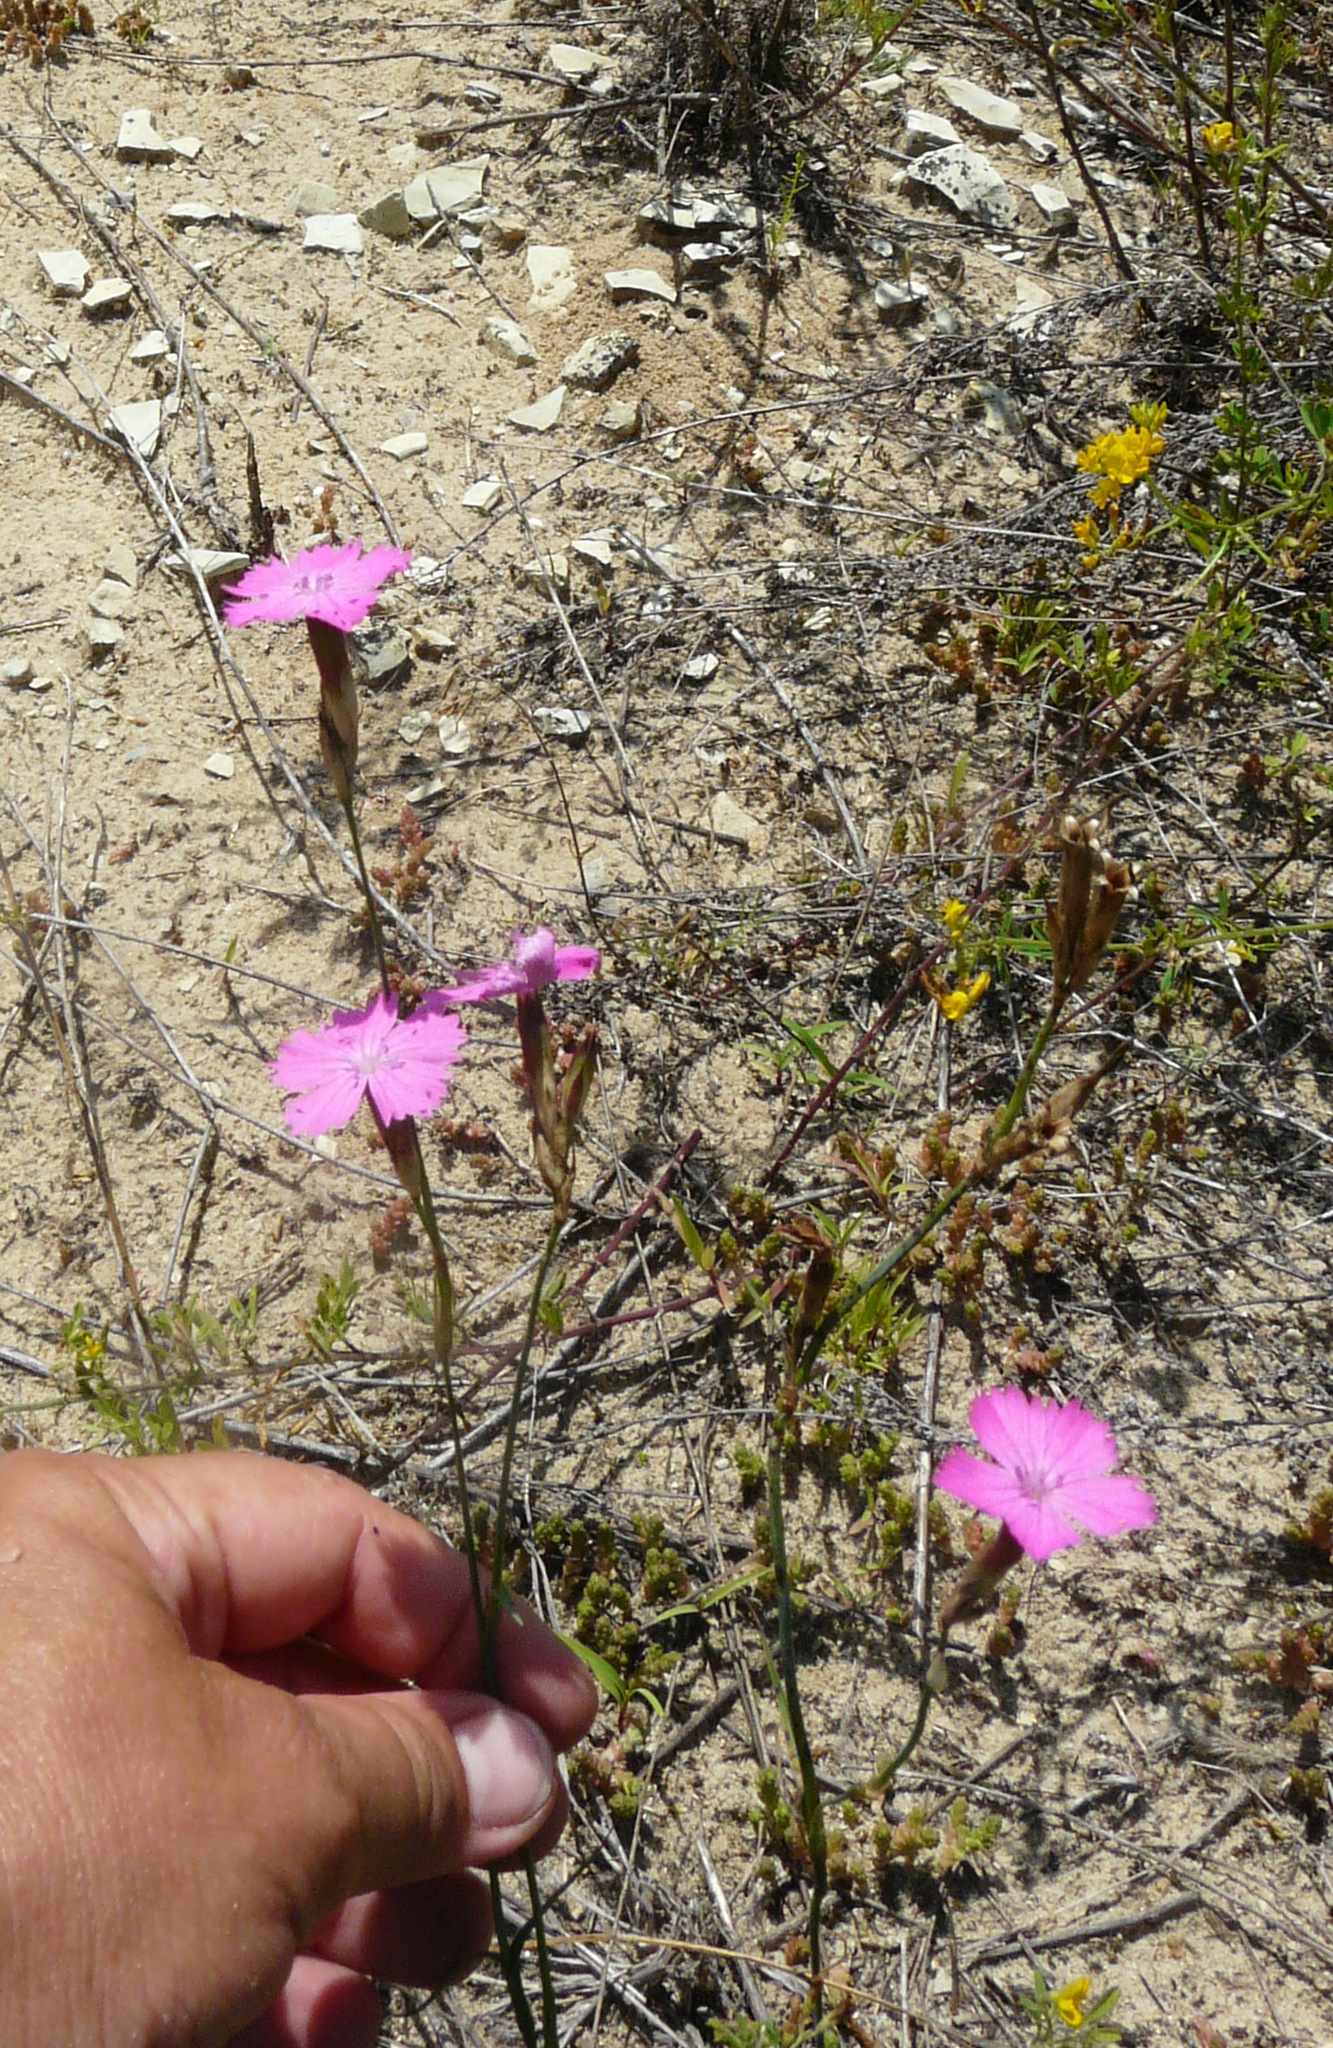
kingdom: Plantae
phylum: Tracheophyta
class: Magnoliopsida
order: Caryophyllales
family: Caryophyllaceae
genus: Dianthus
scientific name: Dianthus borbasii
